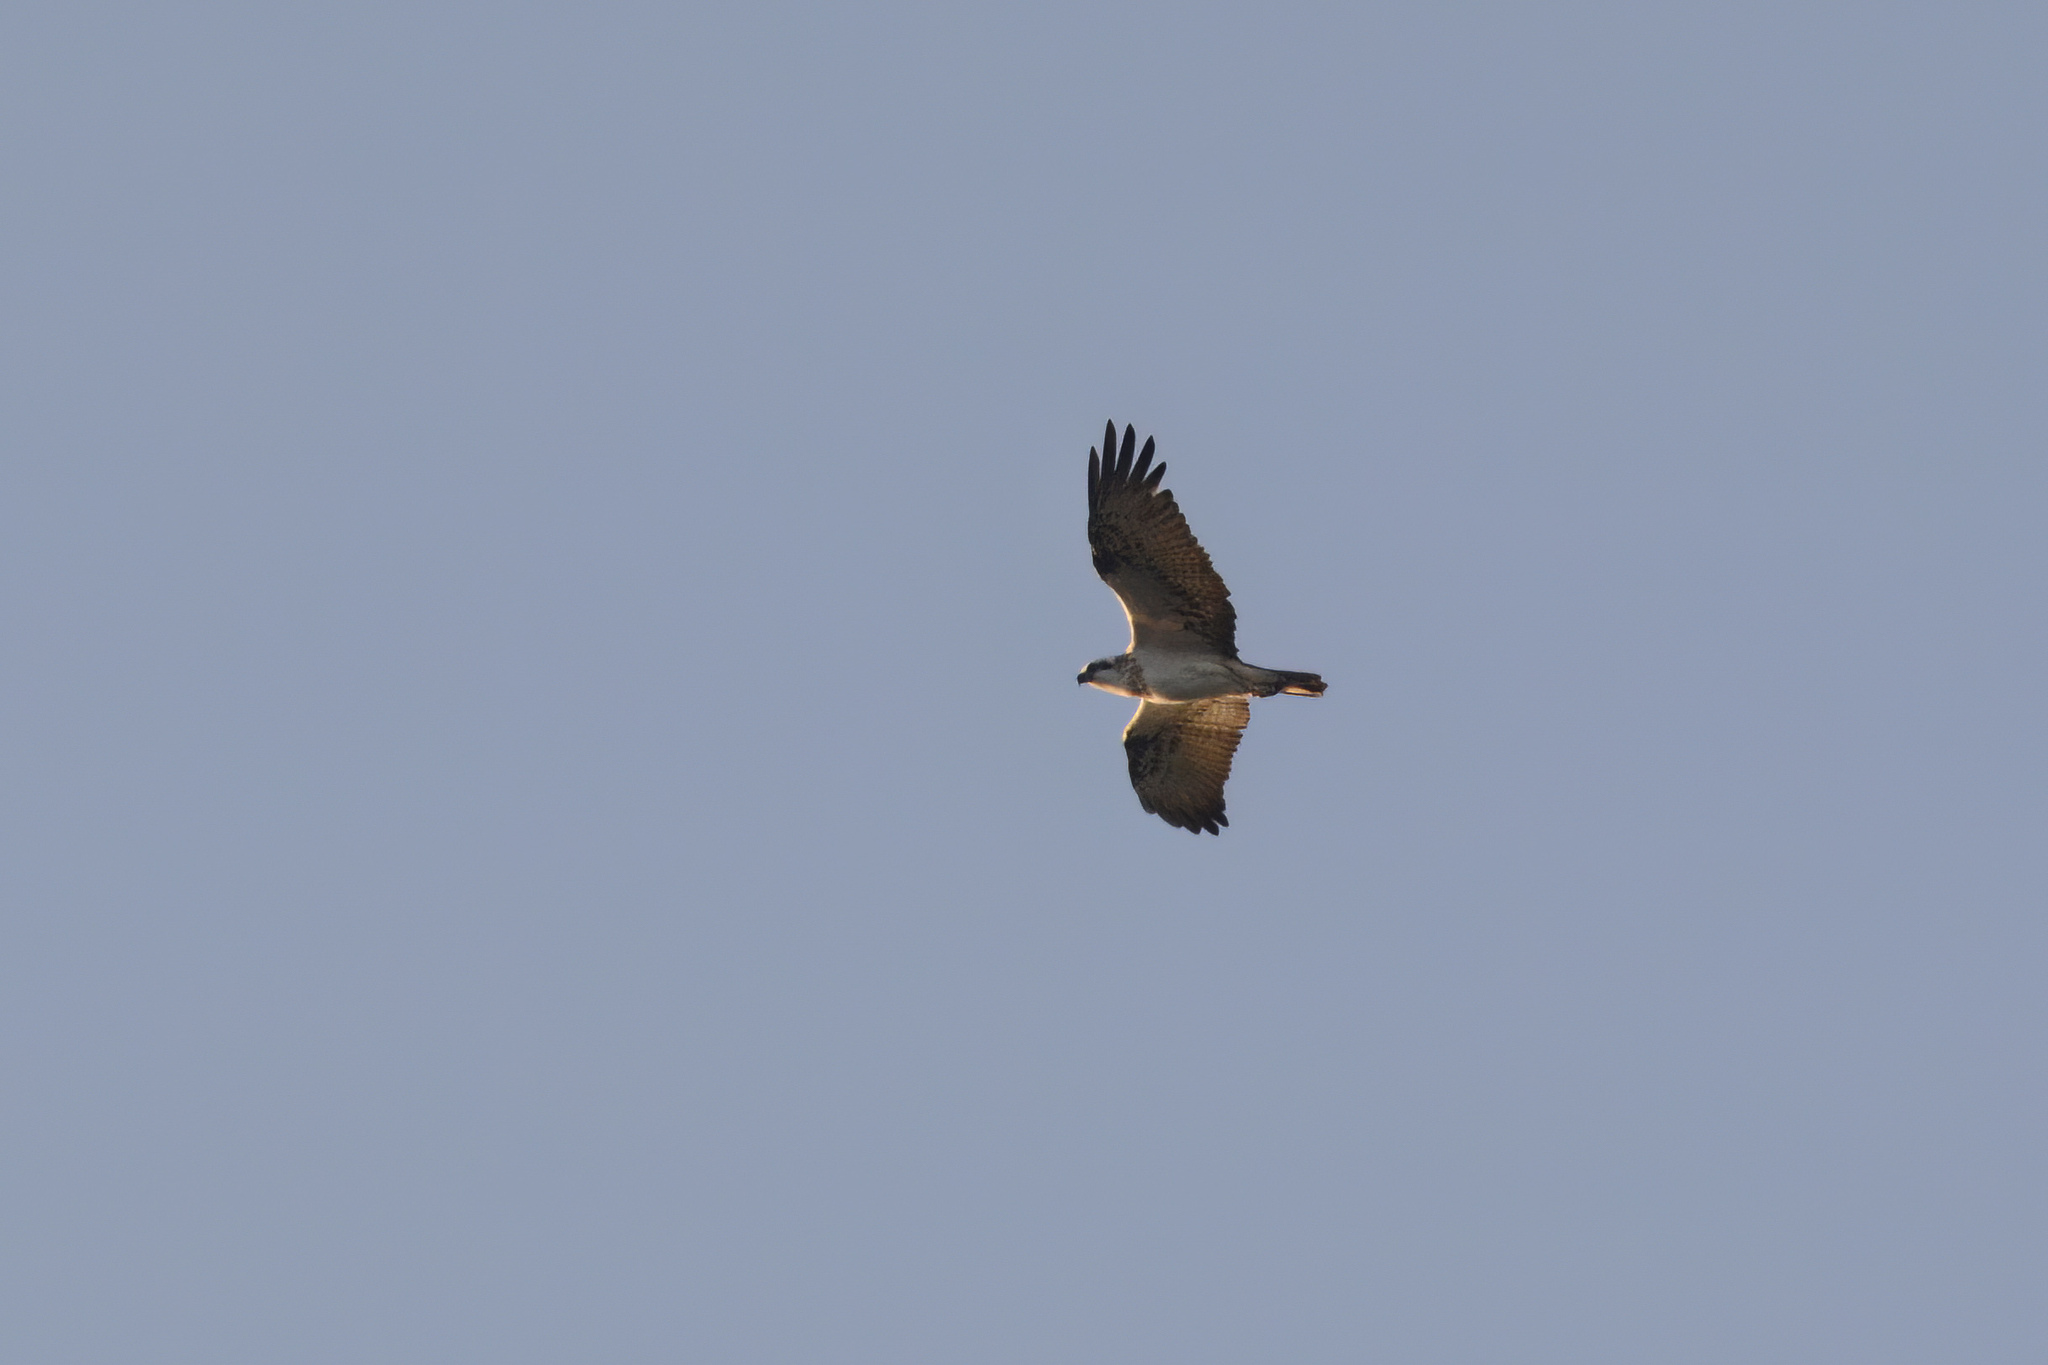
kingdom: Animalia
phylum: Chordata
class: Aves
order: Accipitriformes
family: Pandionidae
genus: Pandion
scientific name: Pandion haliaetus
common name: Osprey
